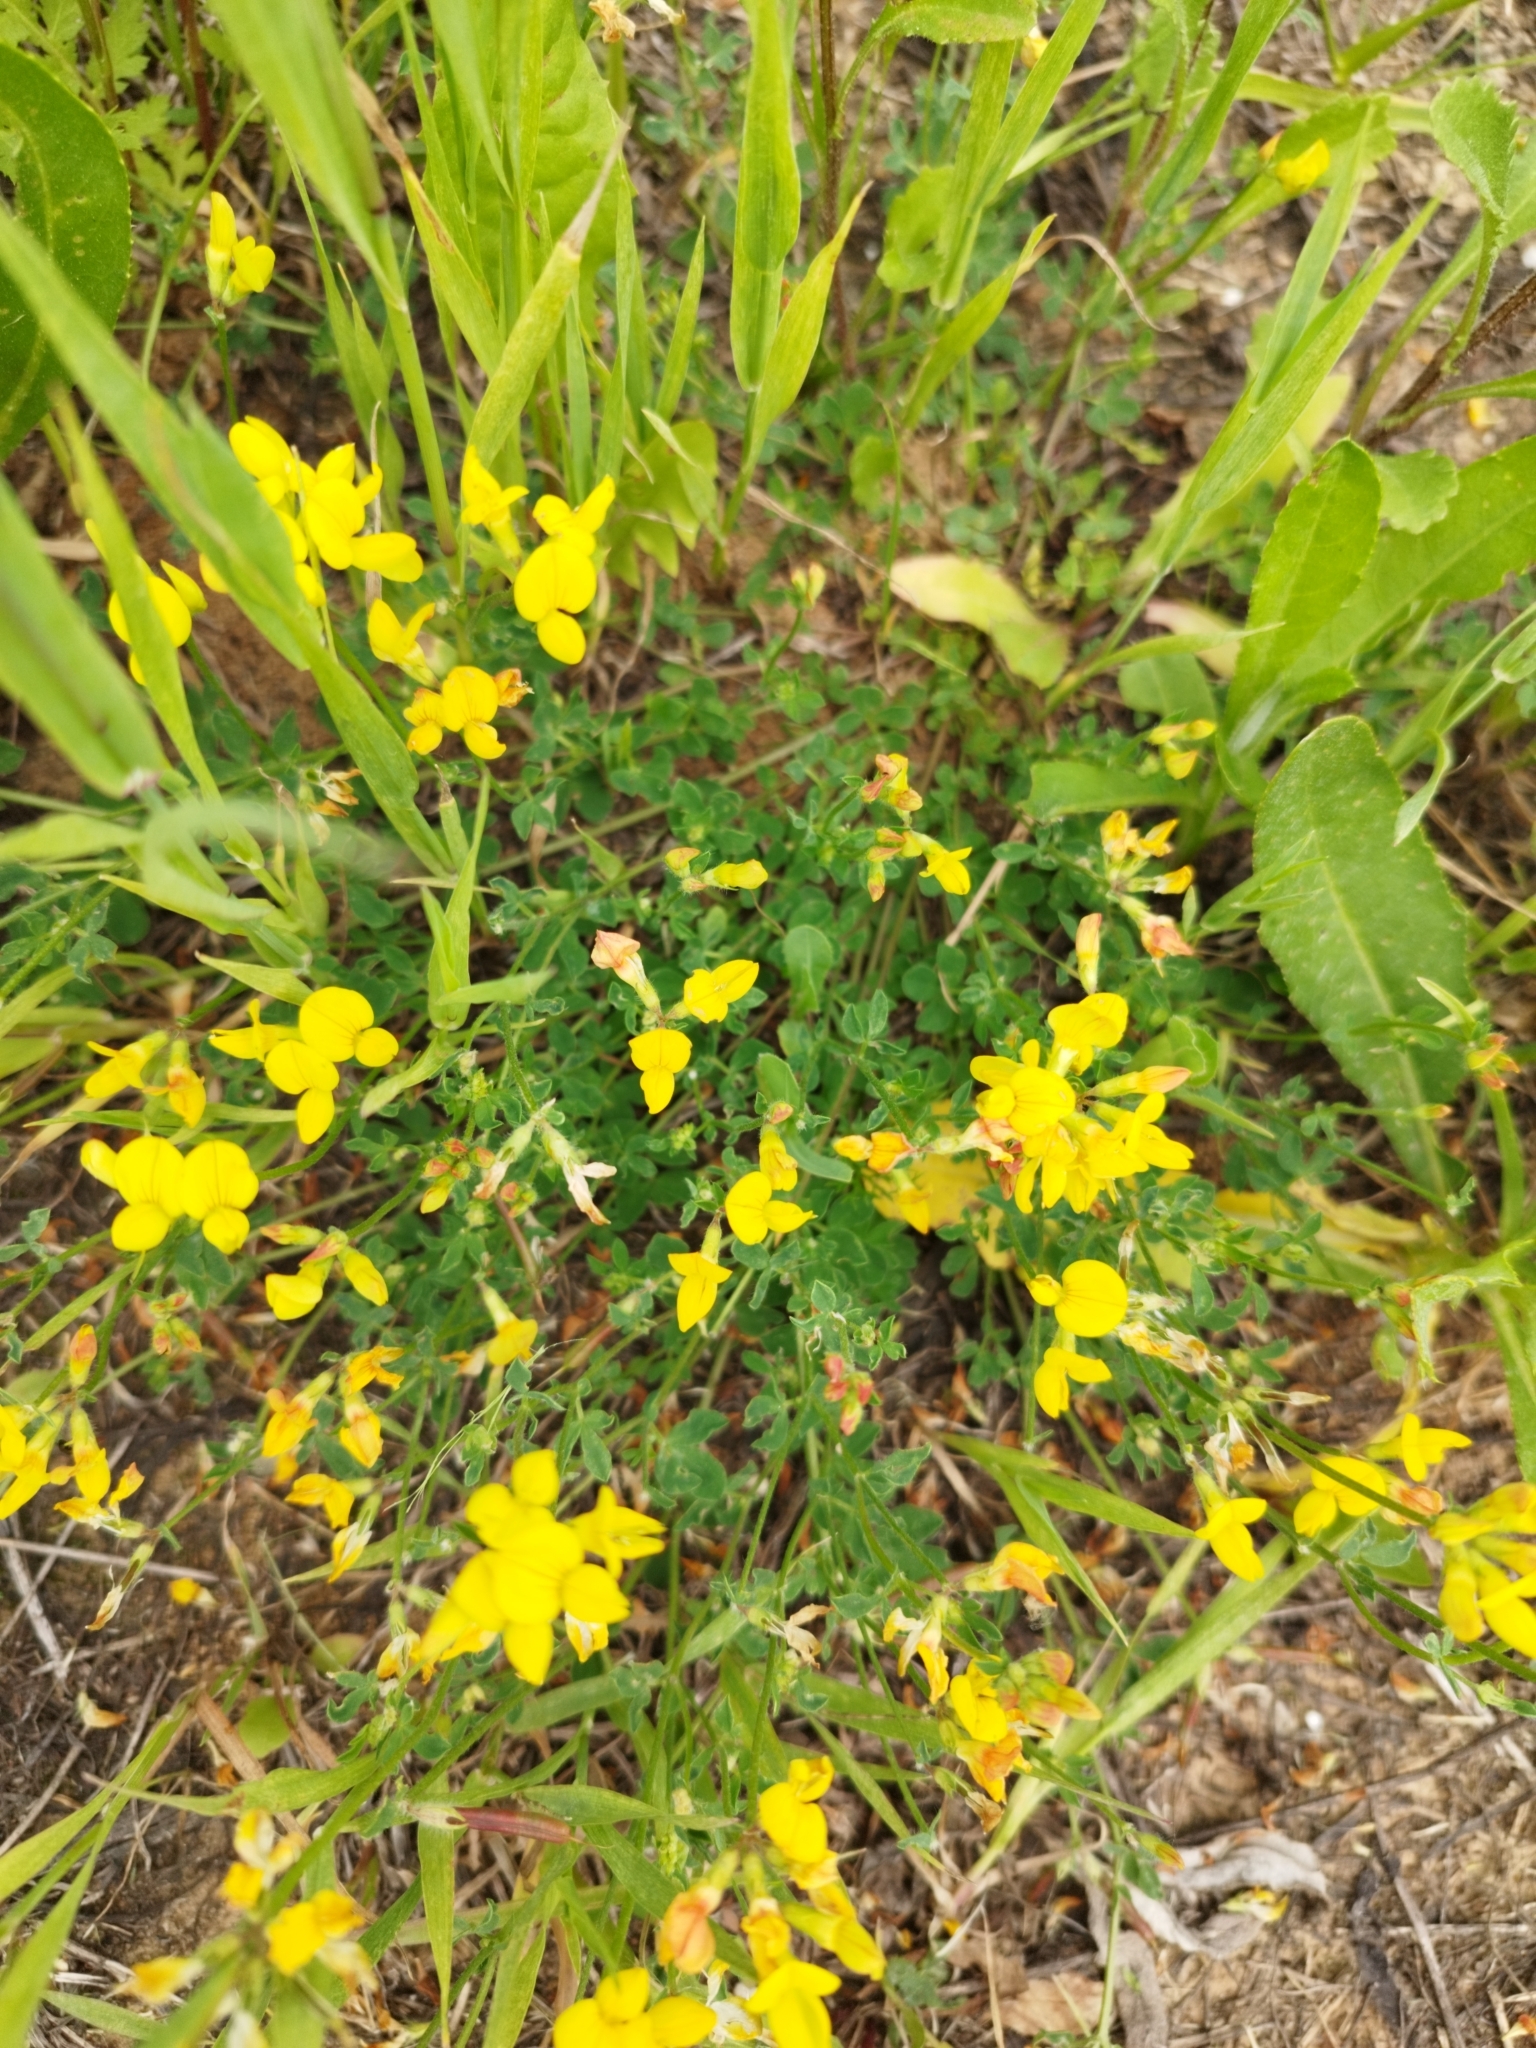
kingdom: Plantae
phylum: Tracheophyta
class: Magnoliopsida
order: Fabales
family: Fabaceae
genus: Lotus
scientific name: Lotus corniculatus
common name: Common bird's-foot-trefoil
